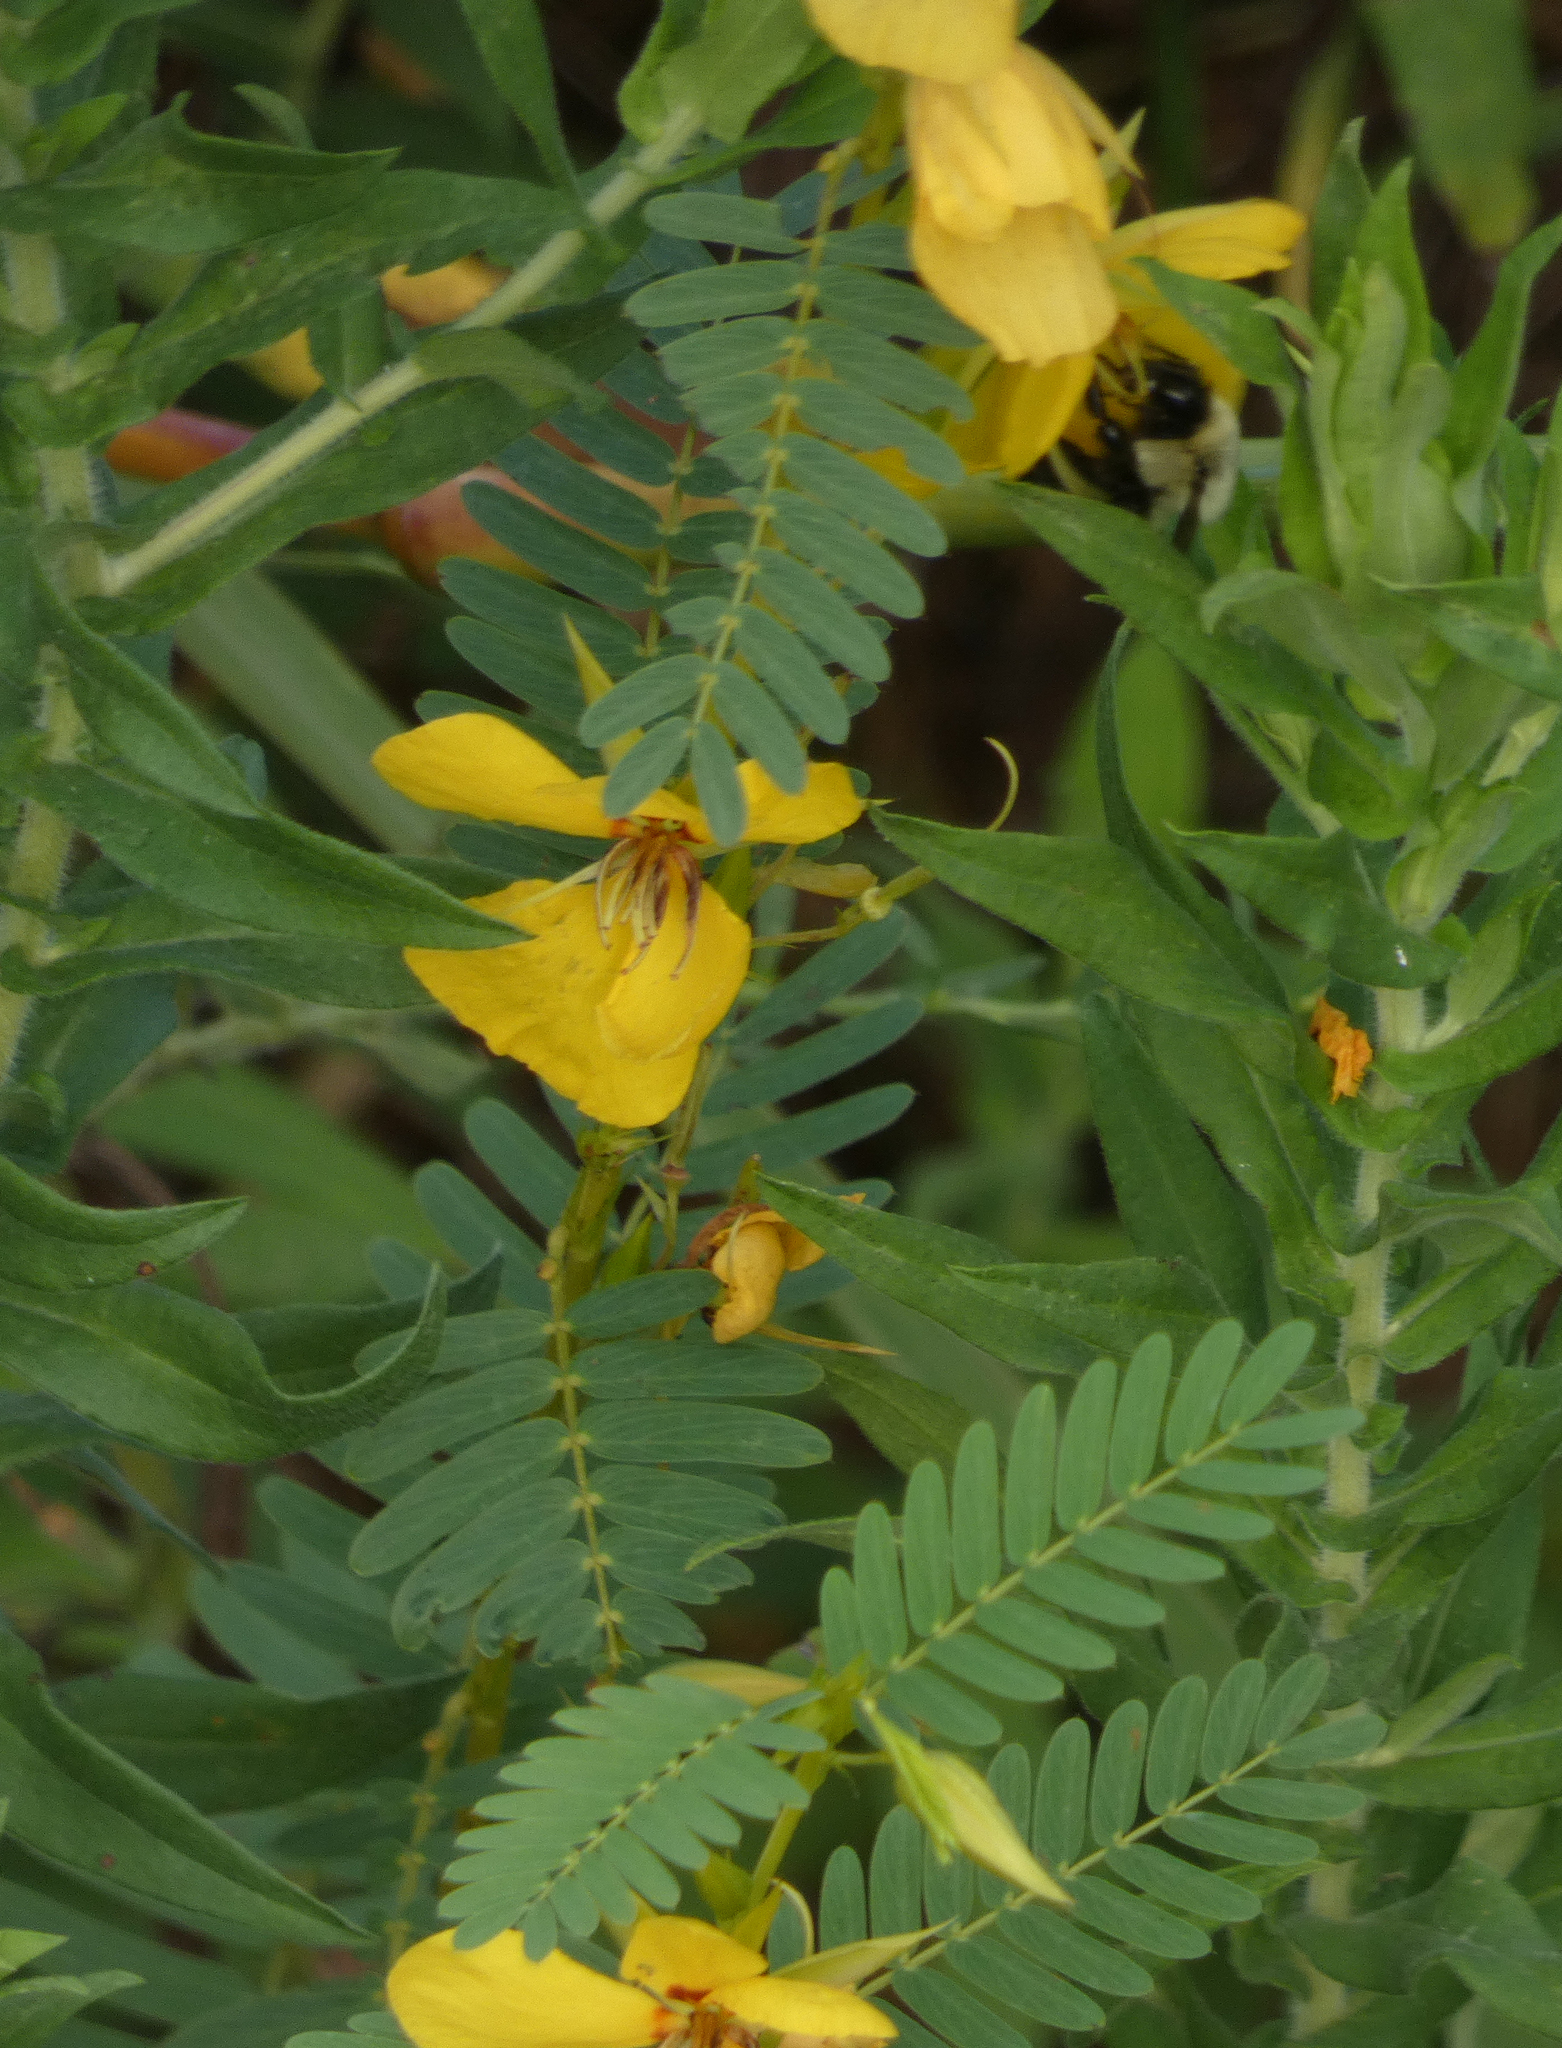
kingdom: Plantae
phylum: Tracheophyta
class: Magnoliopsida
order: Fabales
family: Fabaceae
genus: Chamaecrista
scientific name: Chamaecrista fasciculata
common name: Golden cassia
